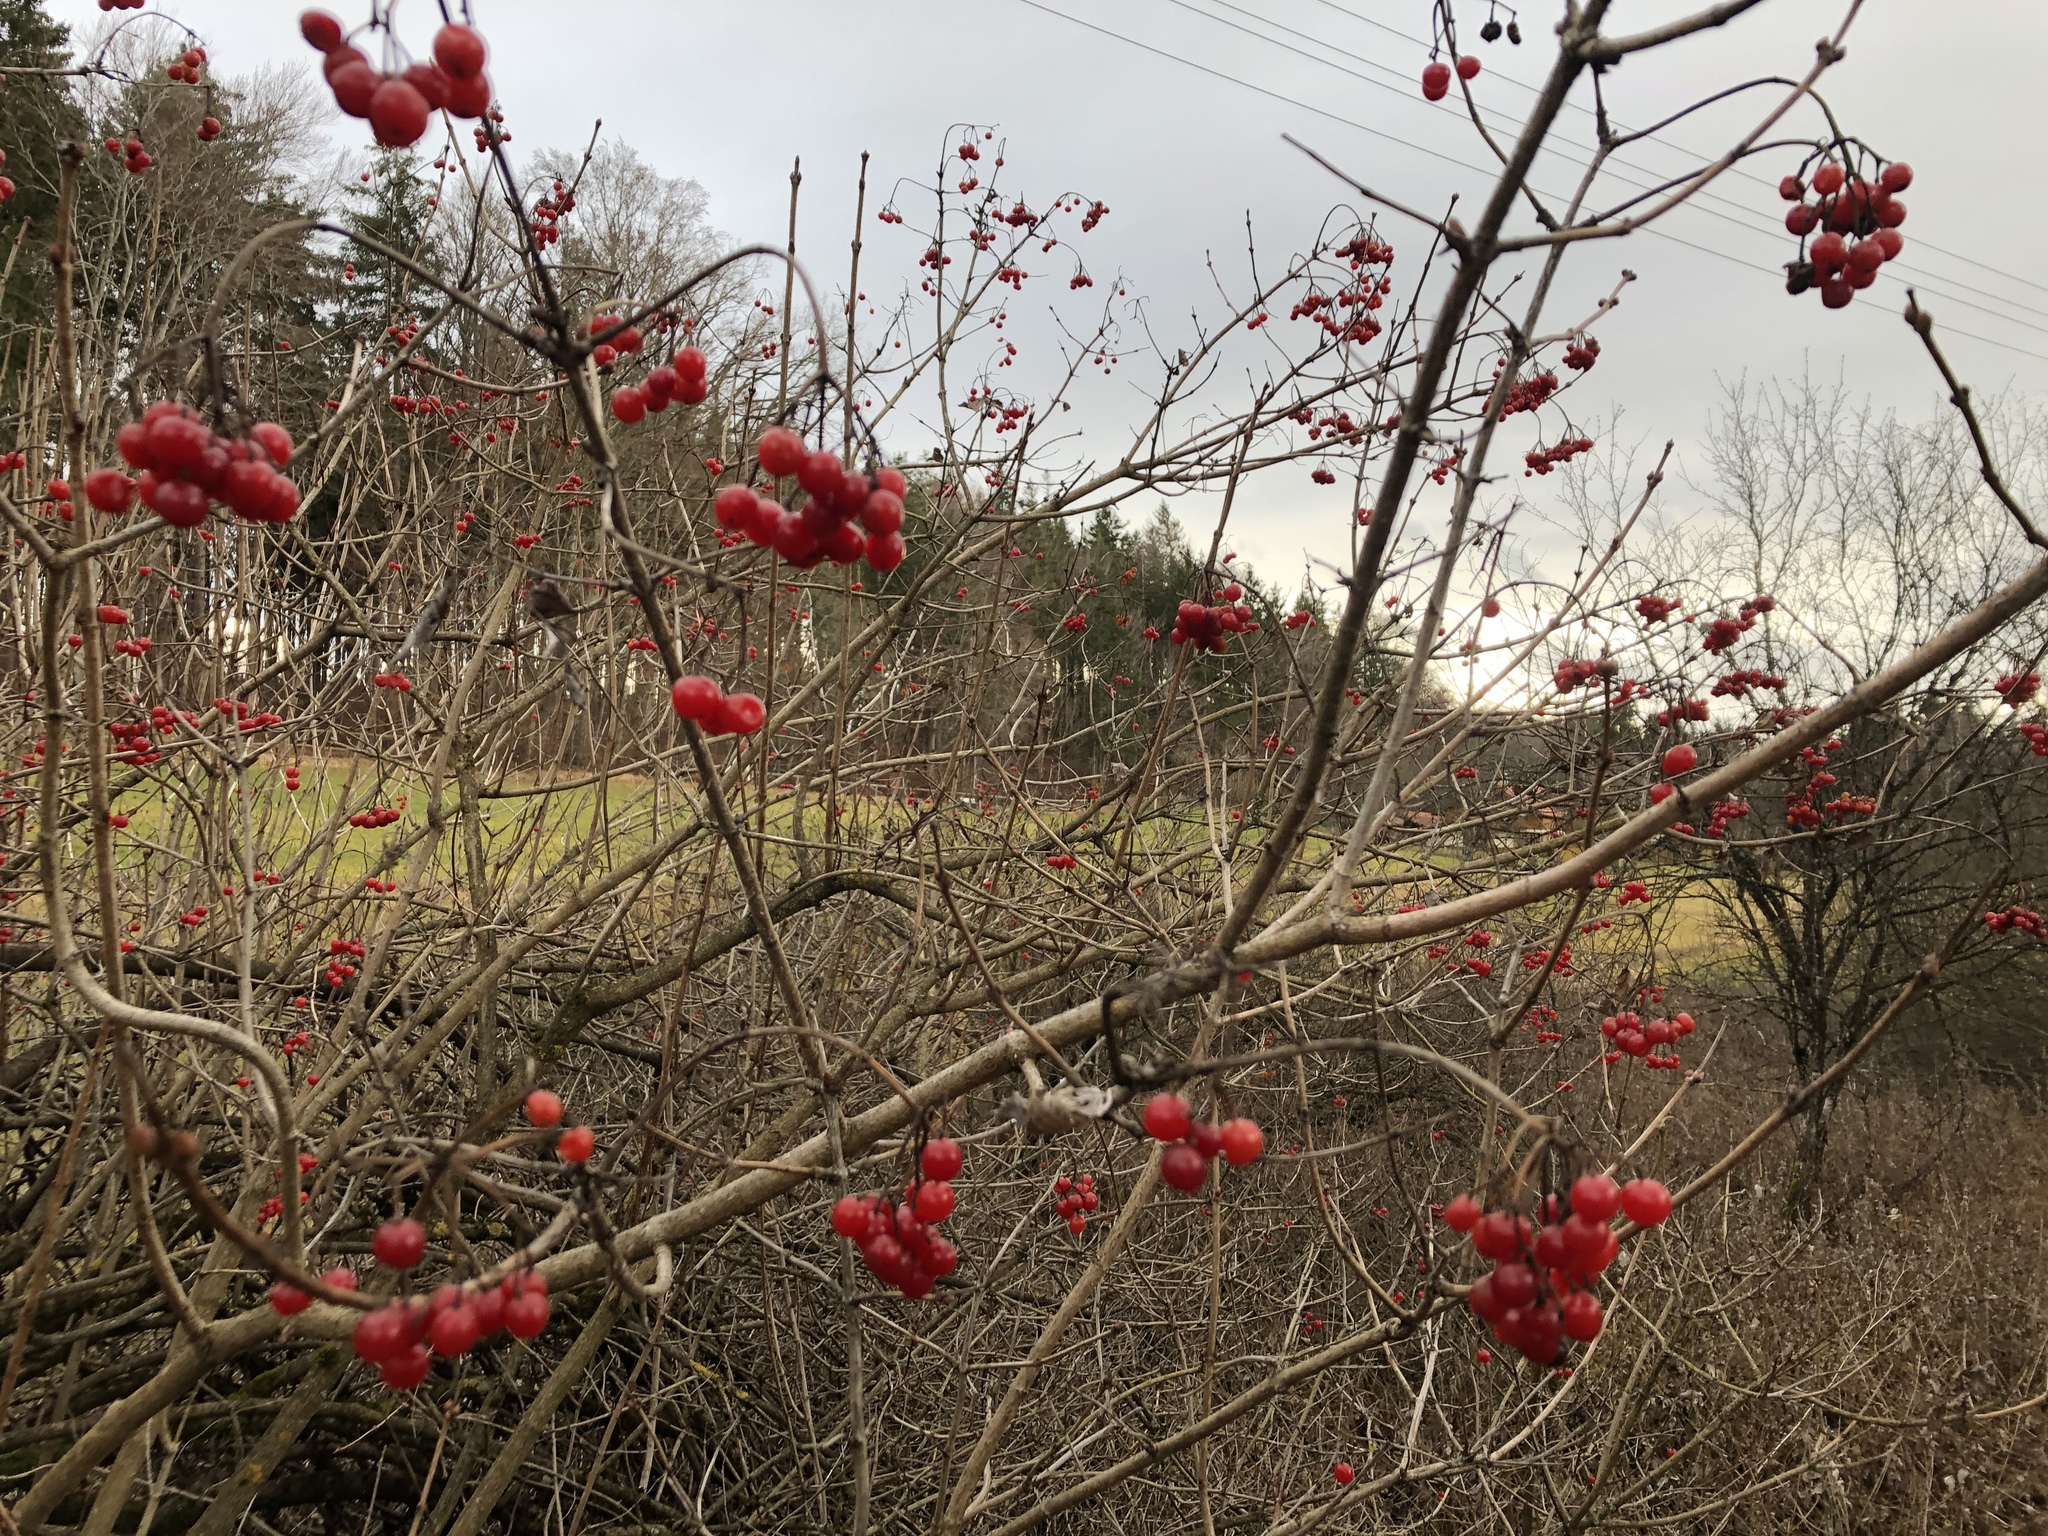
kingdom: Plantae
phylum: Tracheophyta
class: Magnoliopsida
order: Dipsacales
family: Viburnaceae
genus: Viburnum
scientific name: Viburnum opulus
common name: Guelder-rose
